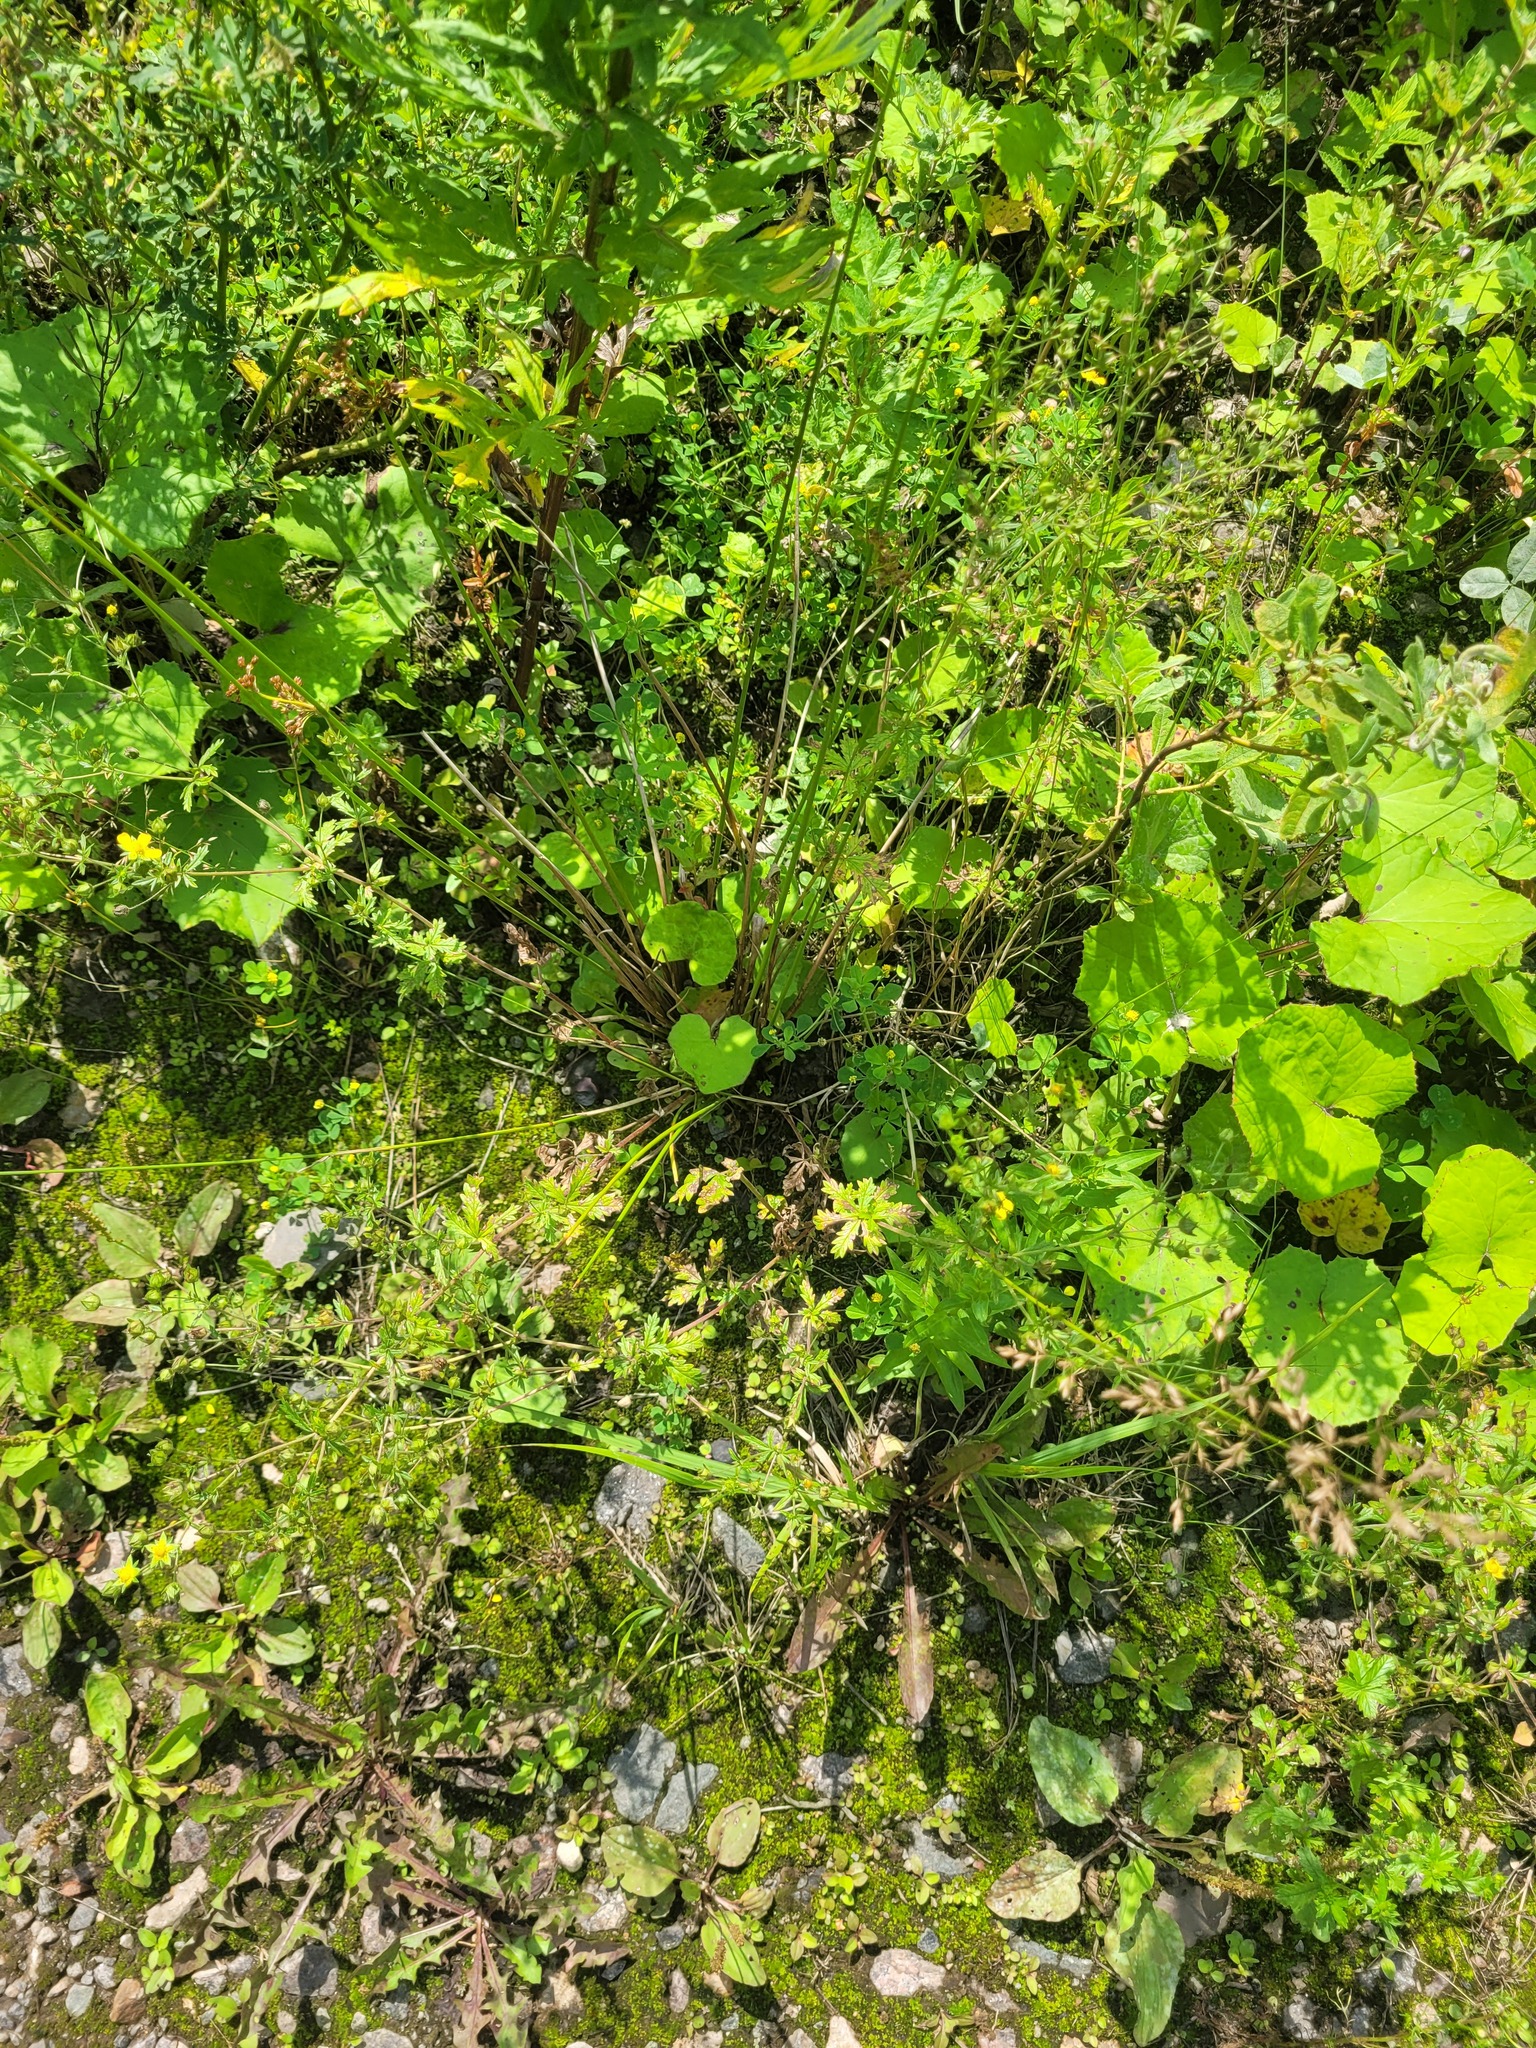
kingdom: Plantae
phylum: Tracheophyta
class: Liliopsida
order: Poales
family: Juncaceae
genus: Juncus
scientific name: Juncus effusus
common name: Soft rush
